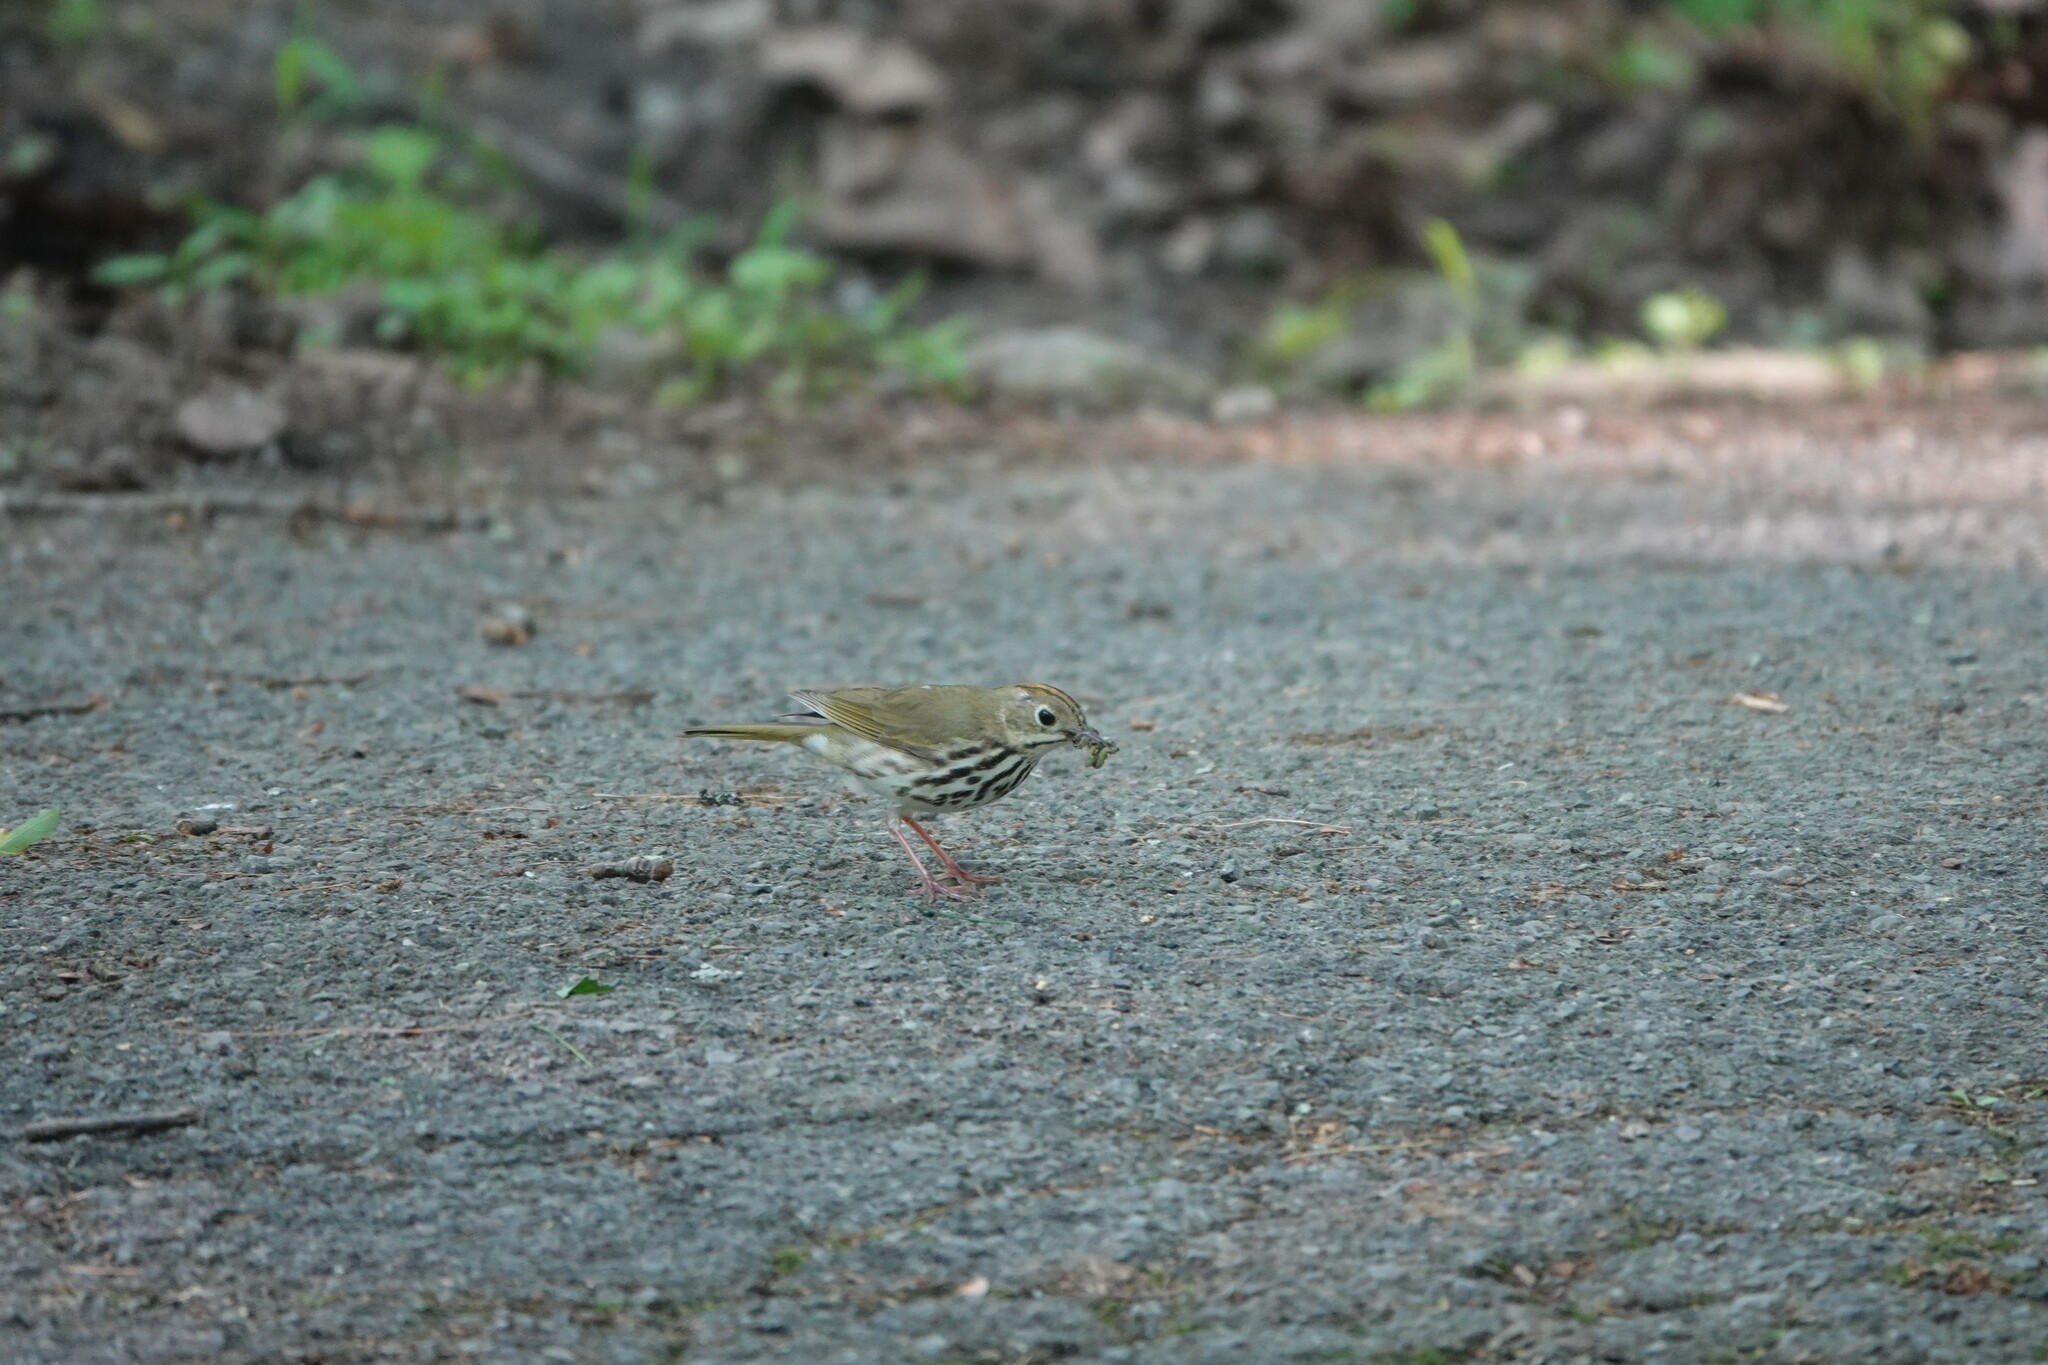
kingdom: Animalia
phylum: Chordata
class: Aves
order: Passeriformes
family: Parulidae
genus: Seiurus
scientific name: Seiurus aurocapilla
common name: Ovenbird
